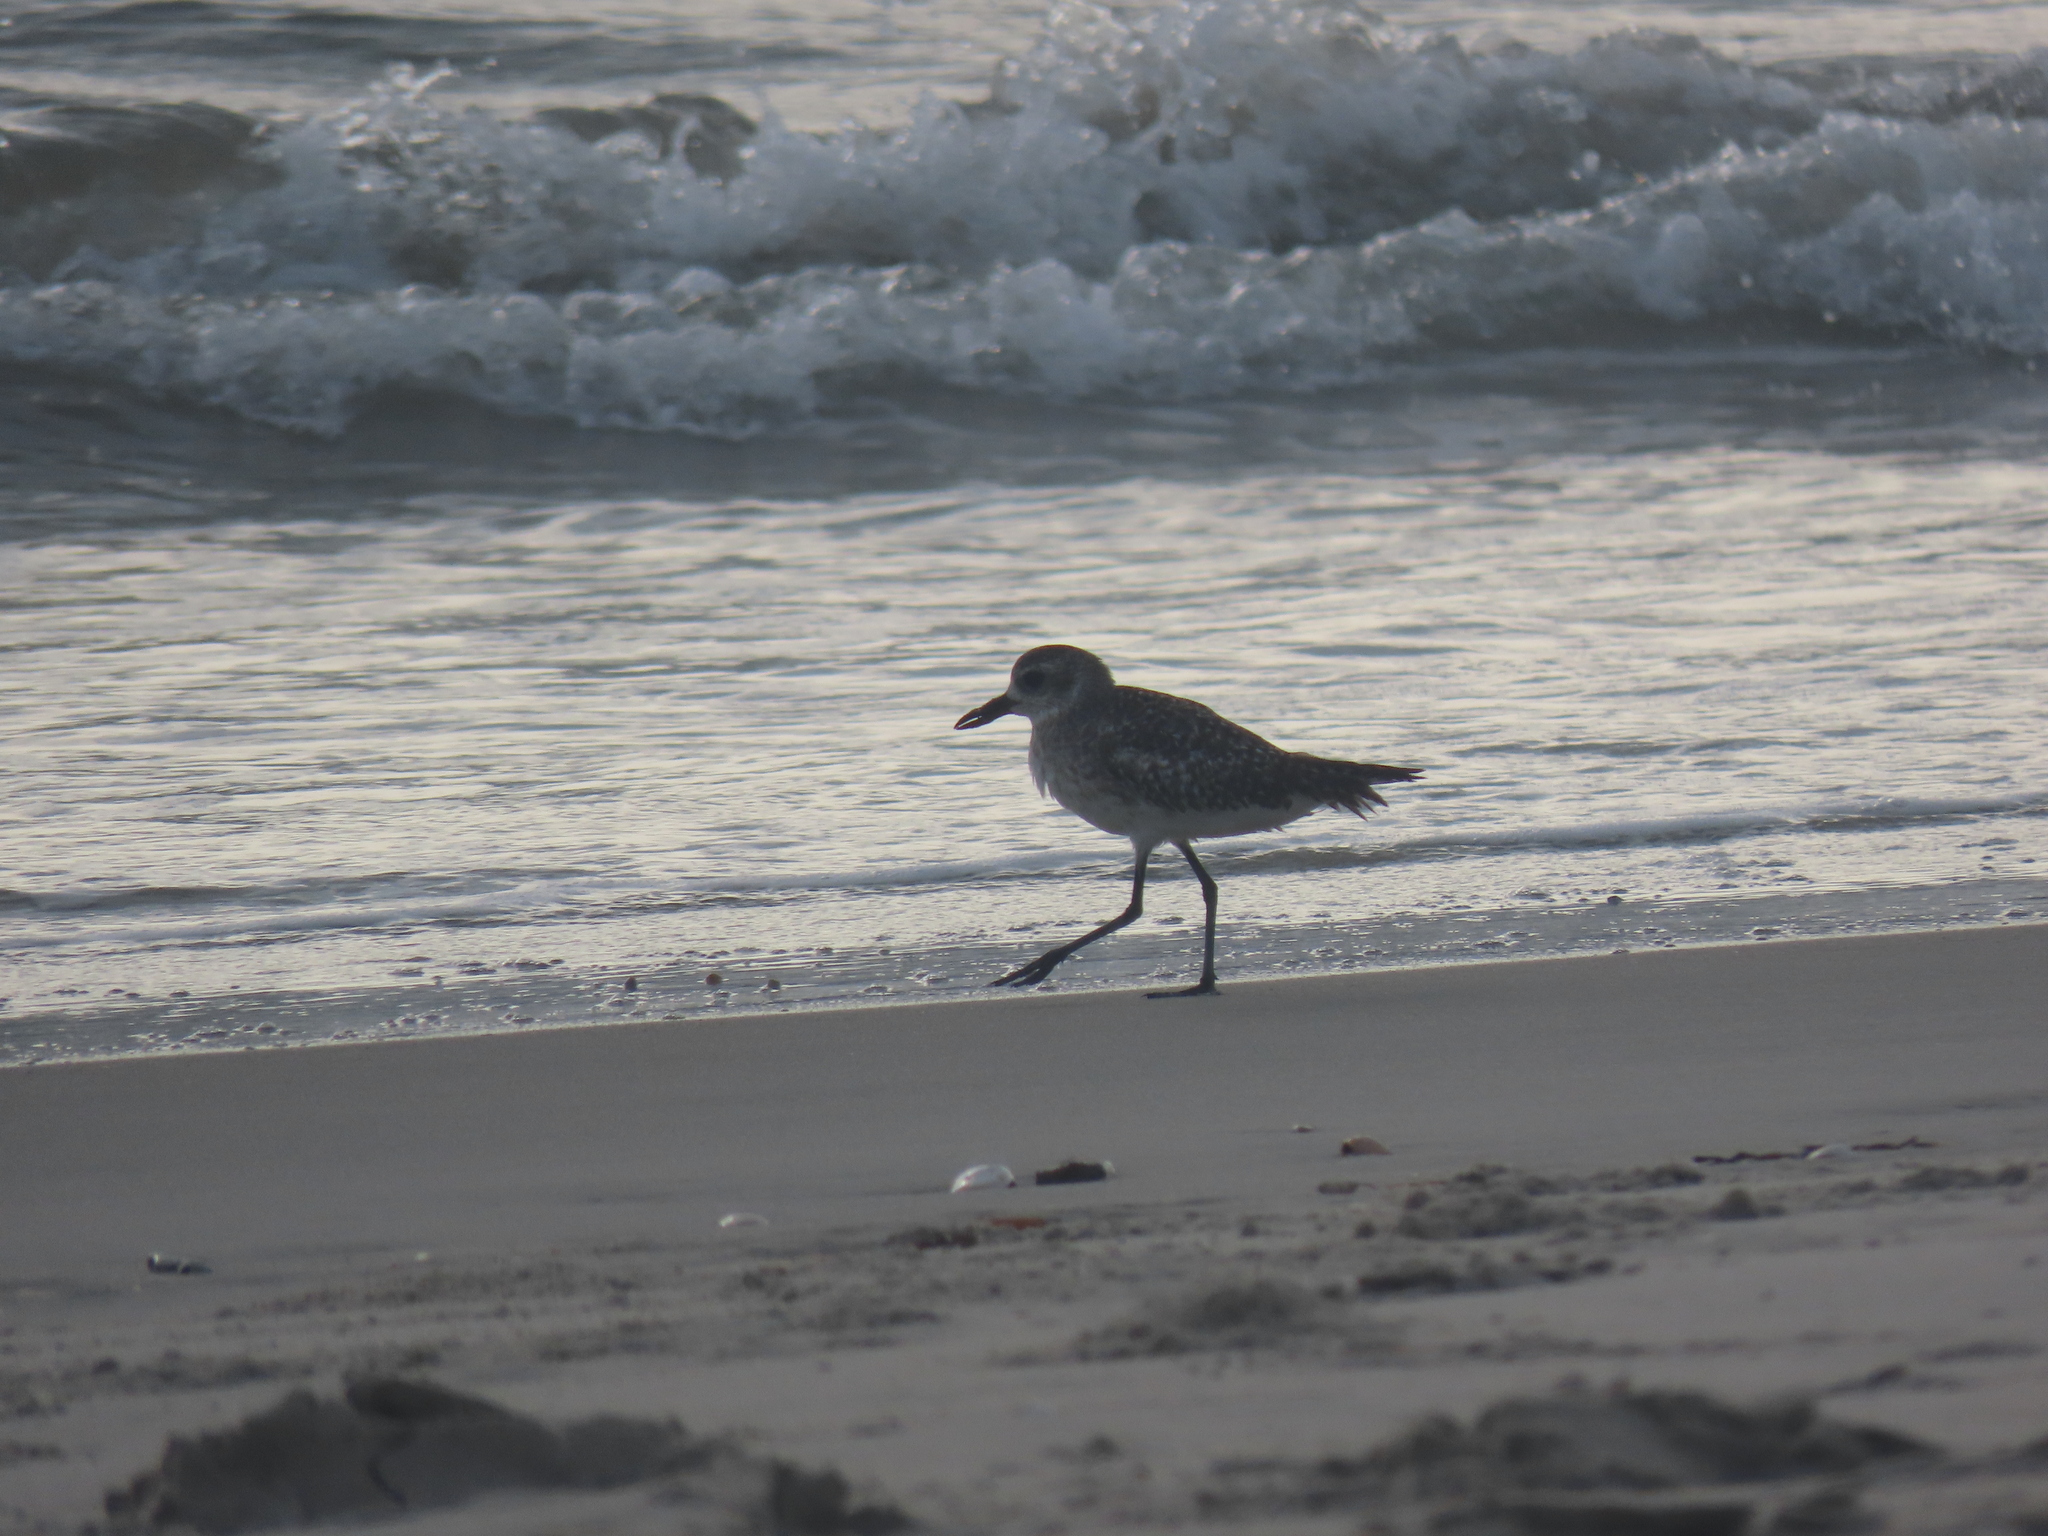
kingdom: Animalia
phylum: Chordata
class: Aves
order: Charadriiformes
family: Charadriidae
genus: Pluvialis
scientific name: Pluvialis squatarola
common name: Grey plover
